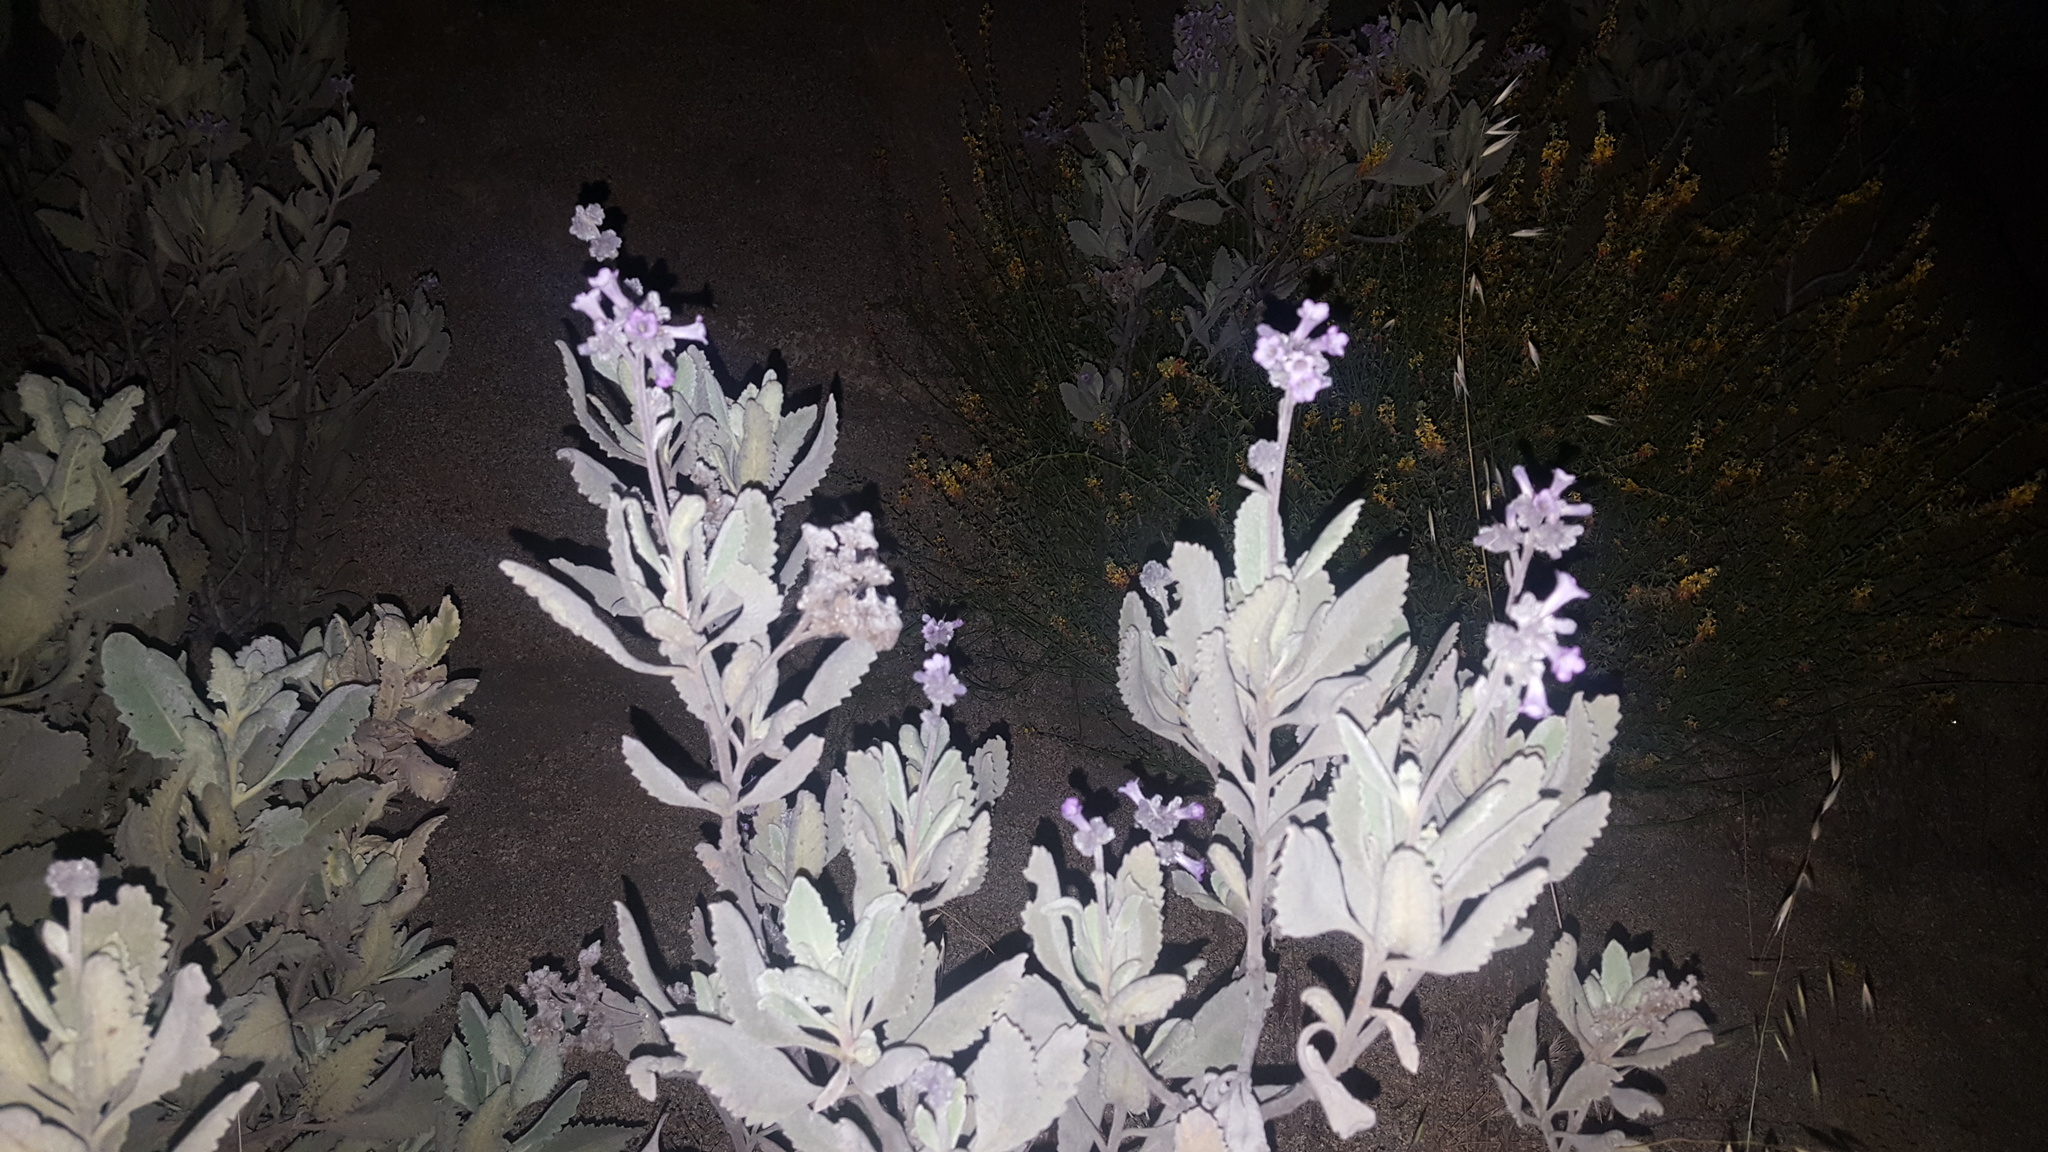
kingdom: Plantae
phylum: Tracheophyta
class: Magnoliopsida
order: Boraginales
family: Namaceae
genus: Eriodictyon
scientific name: Eriodictyon crassifolium
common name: Thick-leaf yerba-santa
